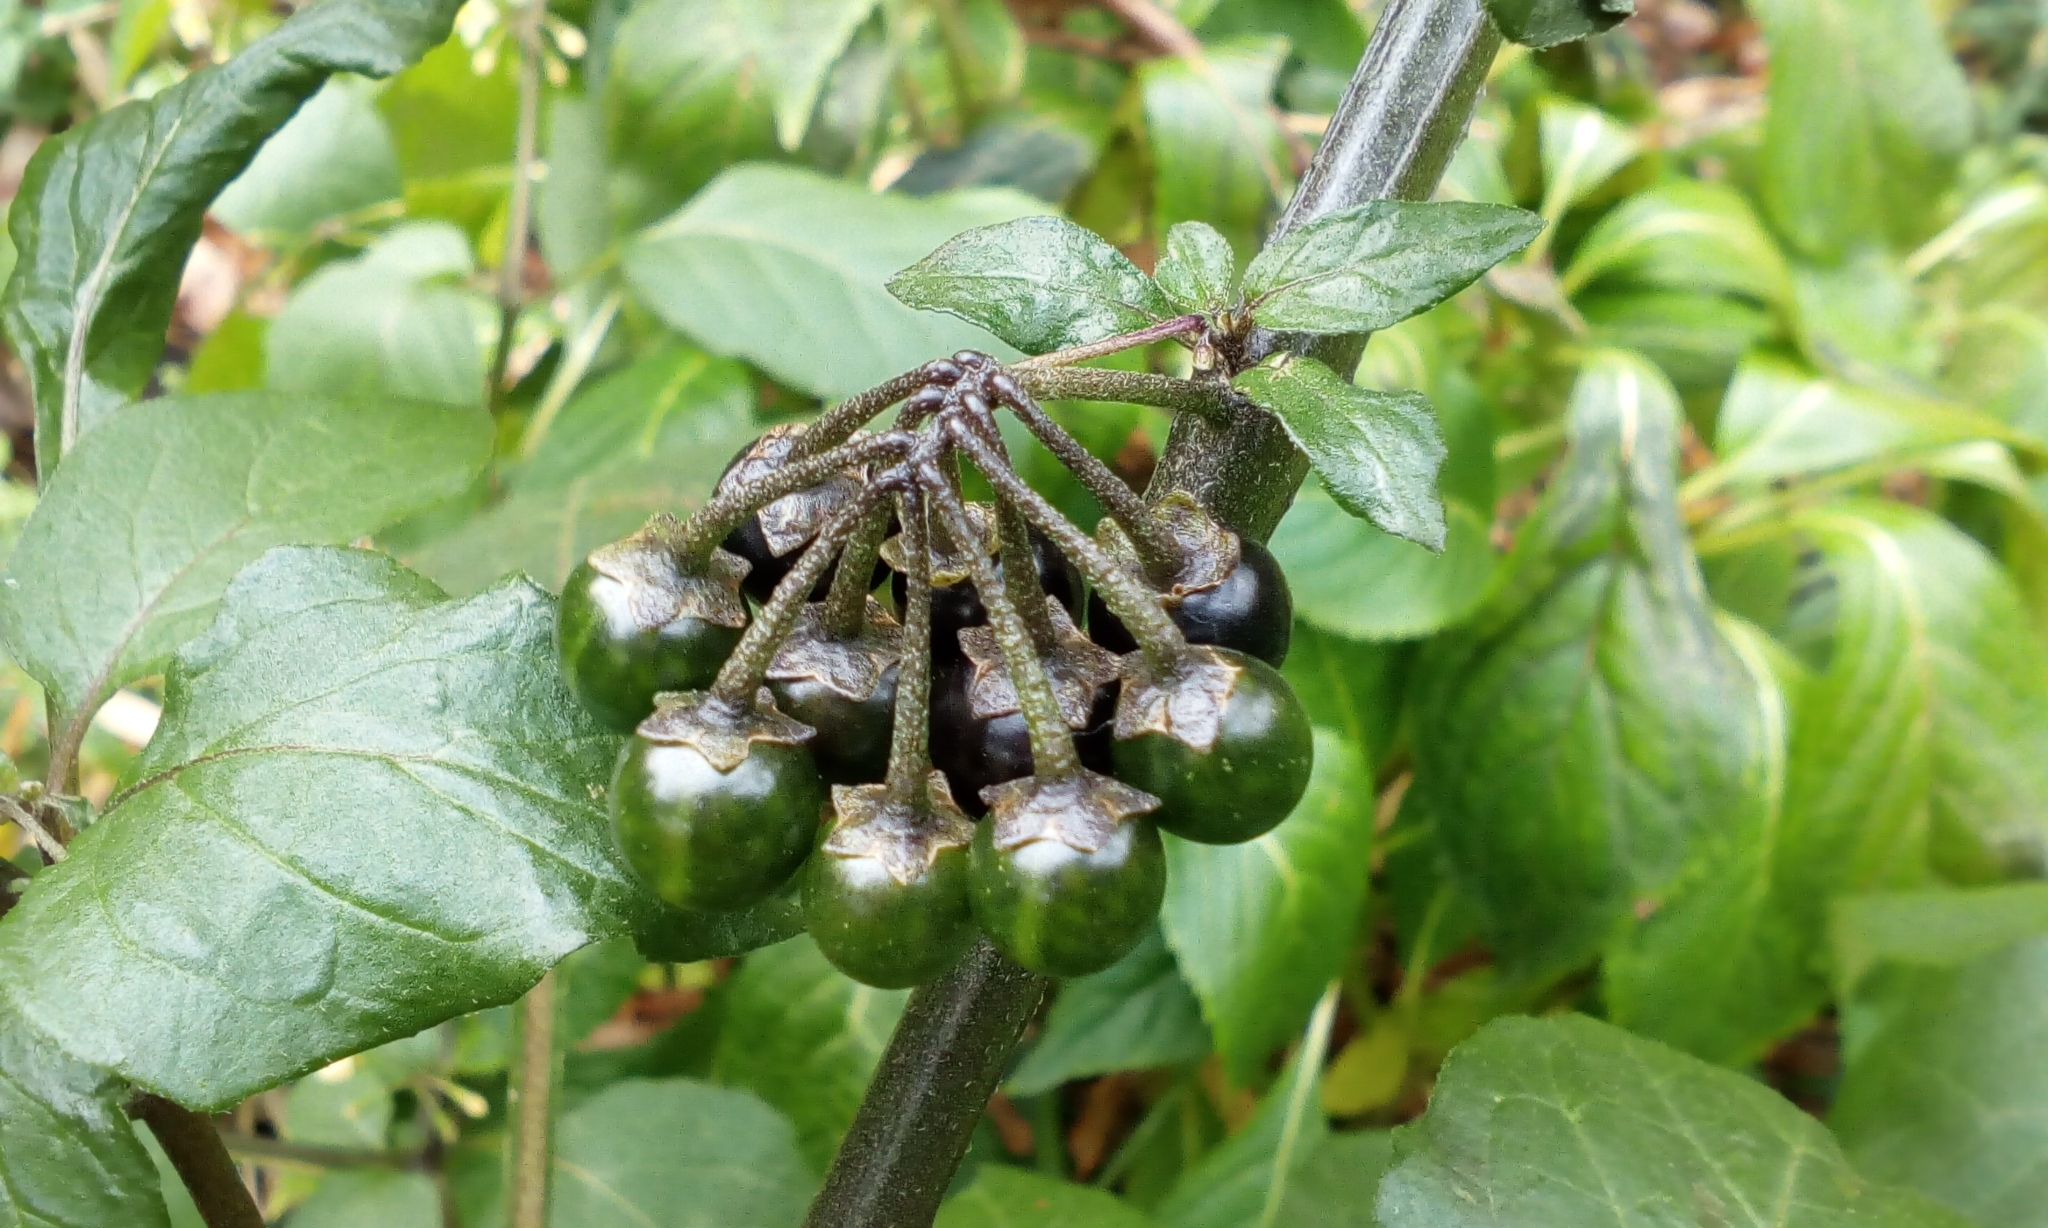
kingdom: Plantae
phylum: Tracheophyta
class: Magnoliopsida
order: Solanales
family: Solanaceae
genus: Solanum
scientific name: Solanum nigrum
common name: Black nightshade
